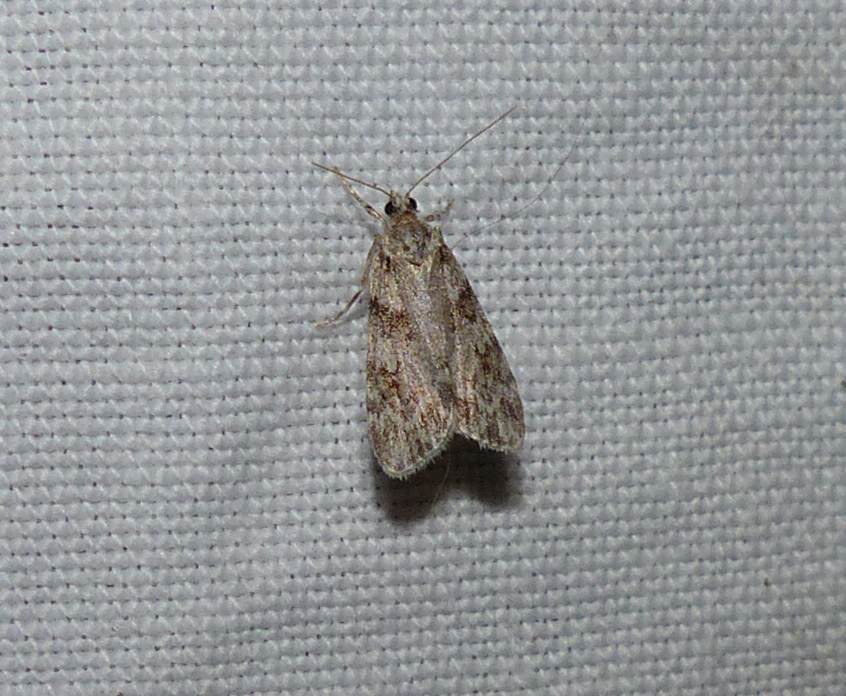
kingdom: Animalia
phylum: Arthropoda
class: Insecta
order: Lepidoptera
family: Crambidae
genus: Scoparia
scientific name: Scoparia biplagialis
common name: Double-striped scoparia moth
